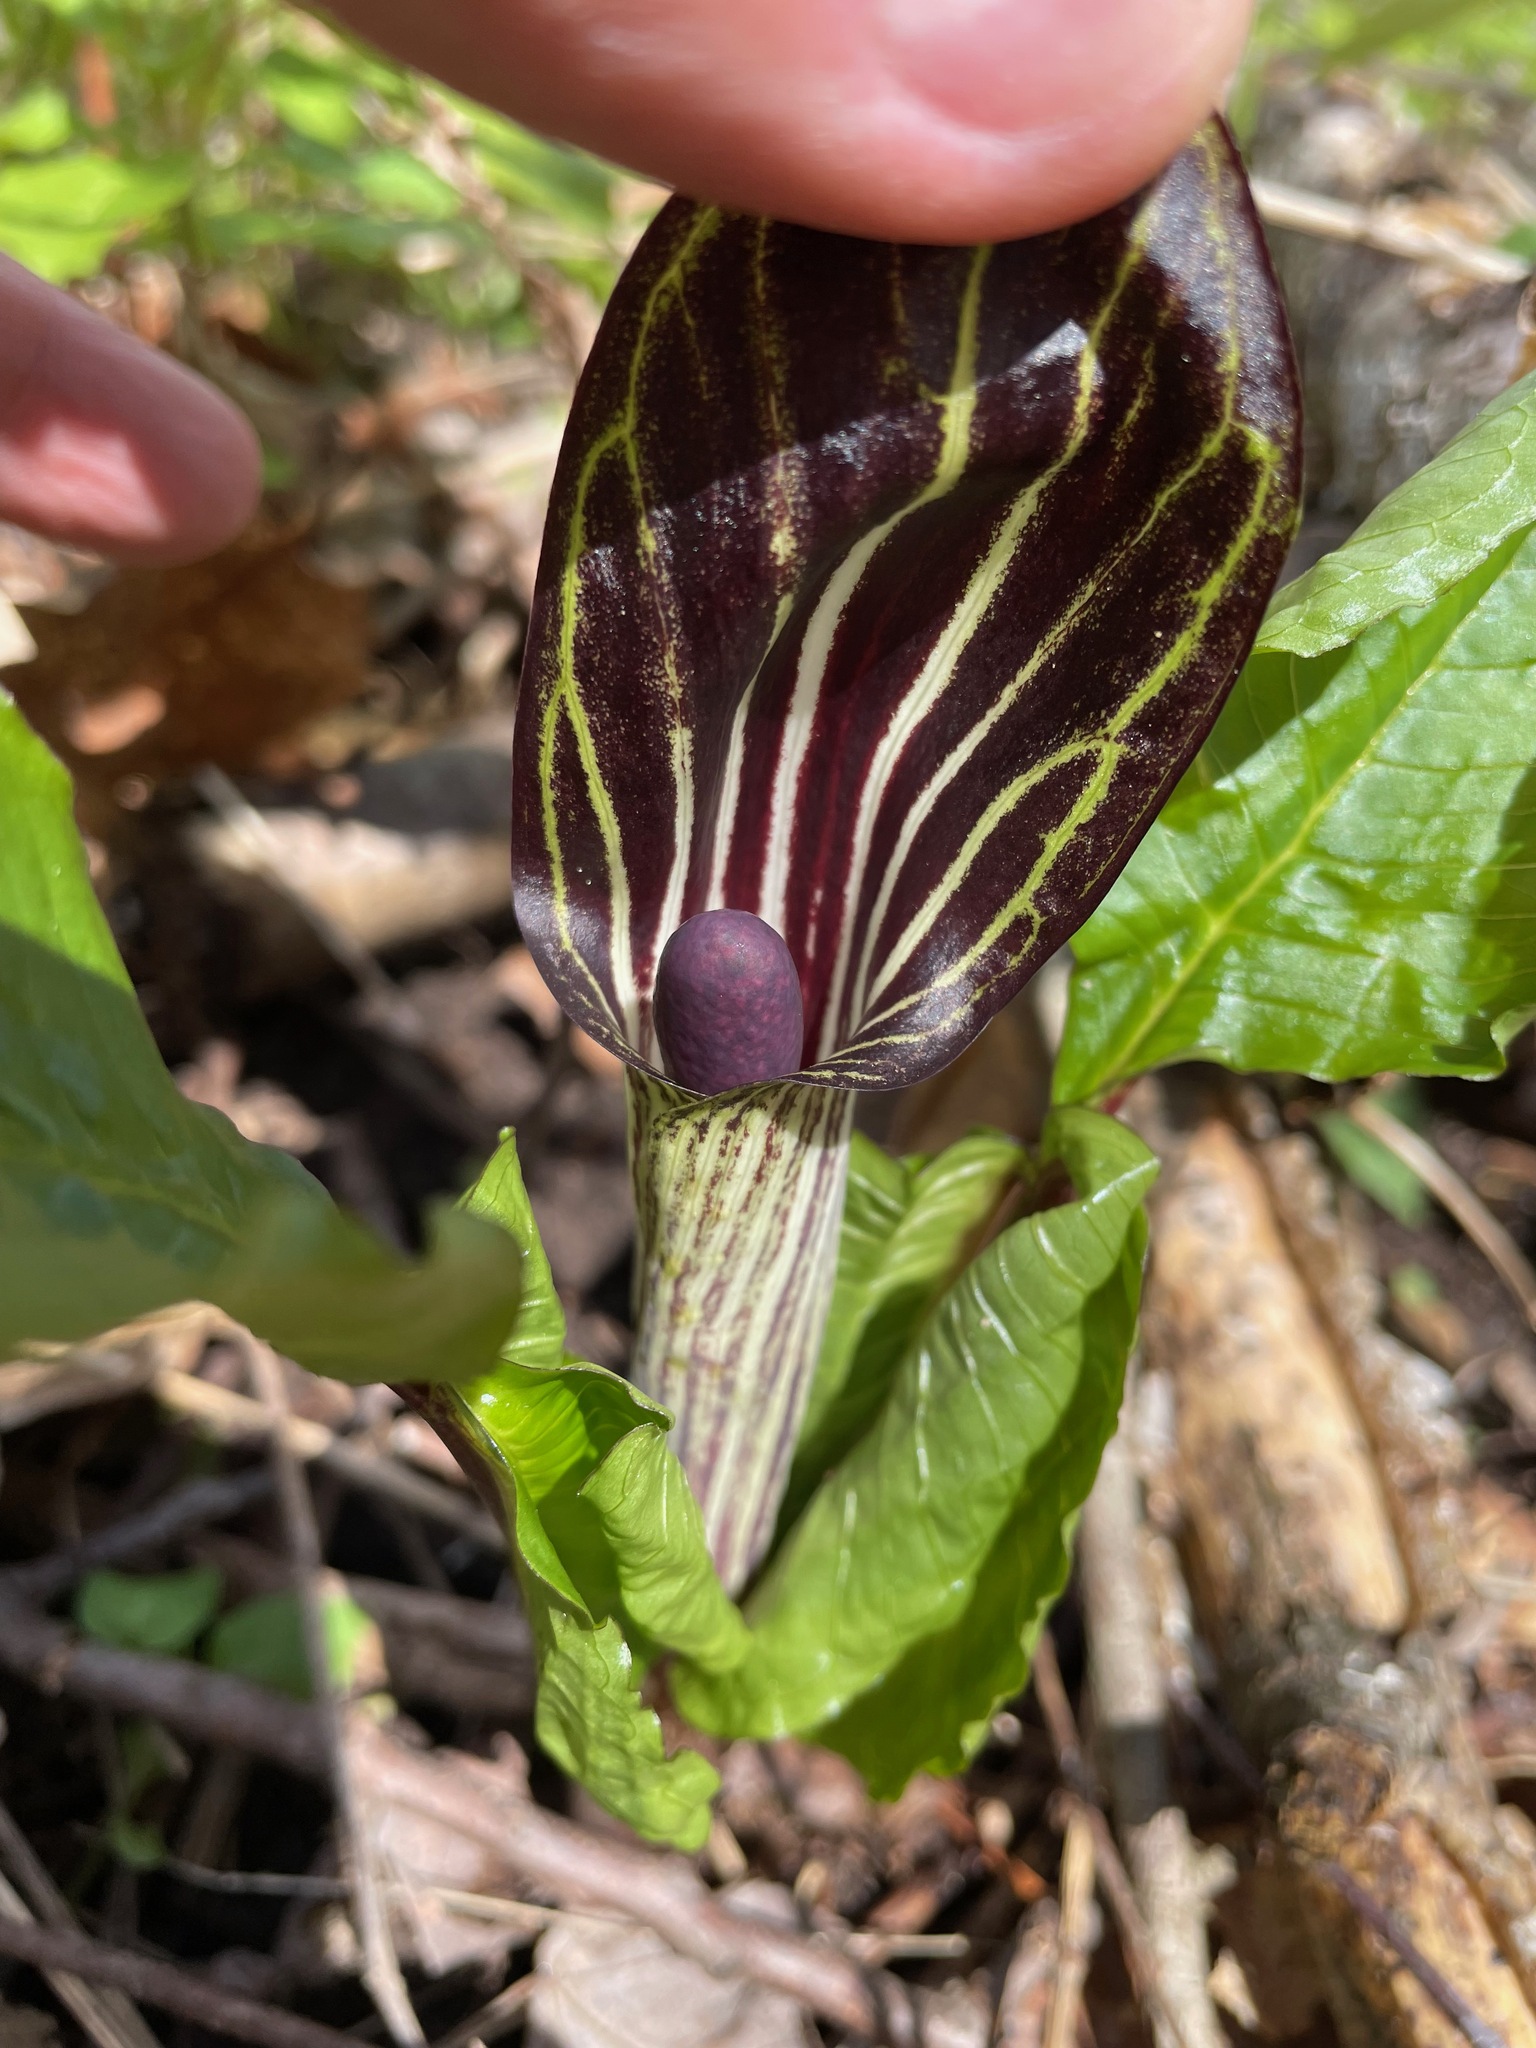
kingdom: Plantae
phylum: Tracheophyta
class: Liliopsida
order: Alismatales
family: Araceae
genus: Arisaema
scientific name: Arisaema triphyllum
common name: Jack-in-the-pulpit
